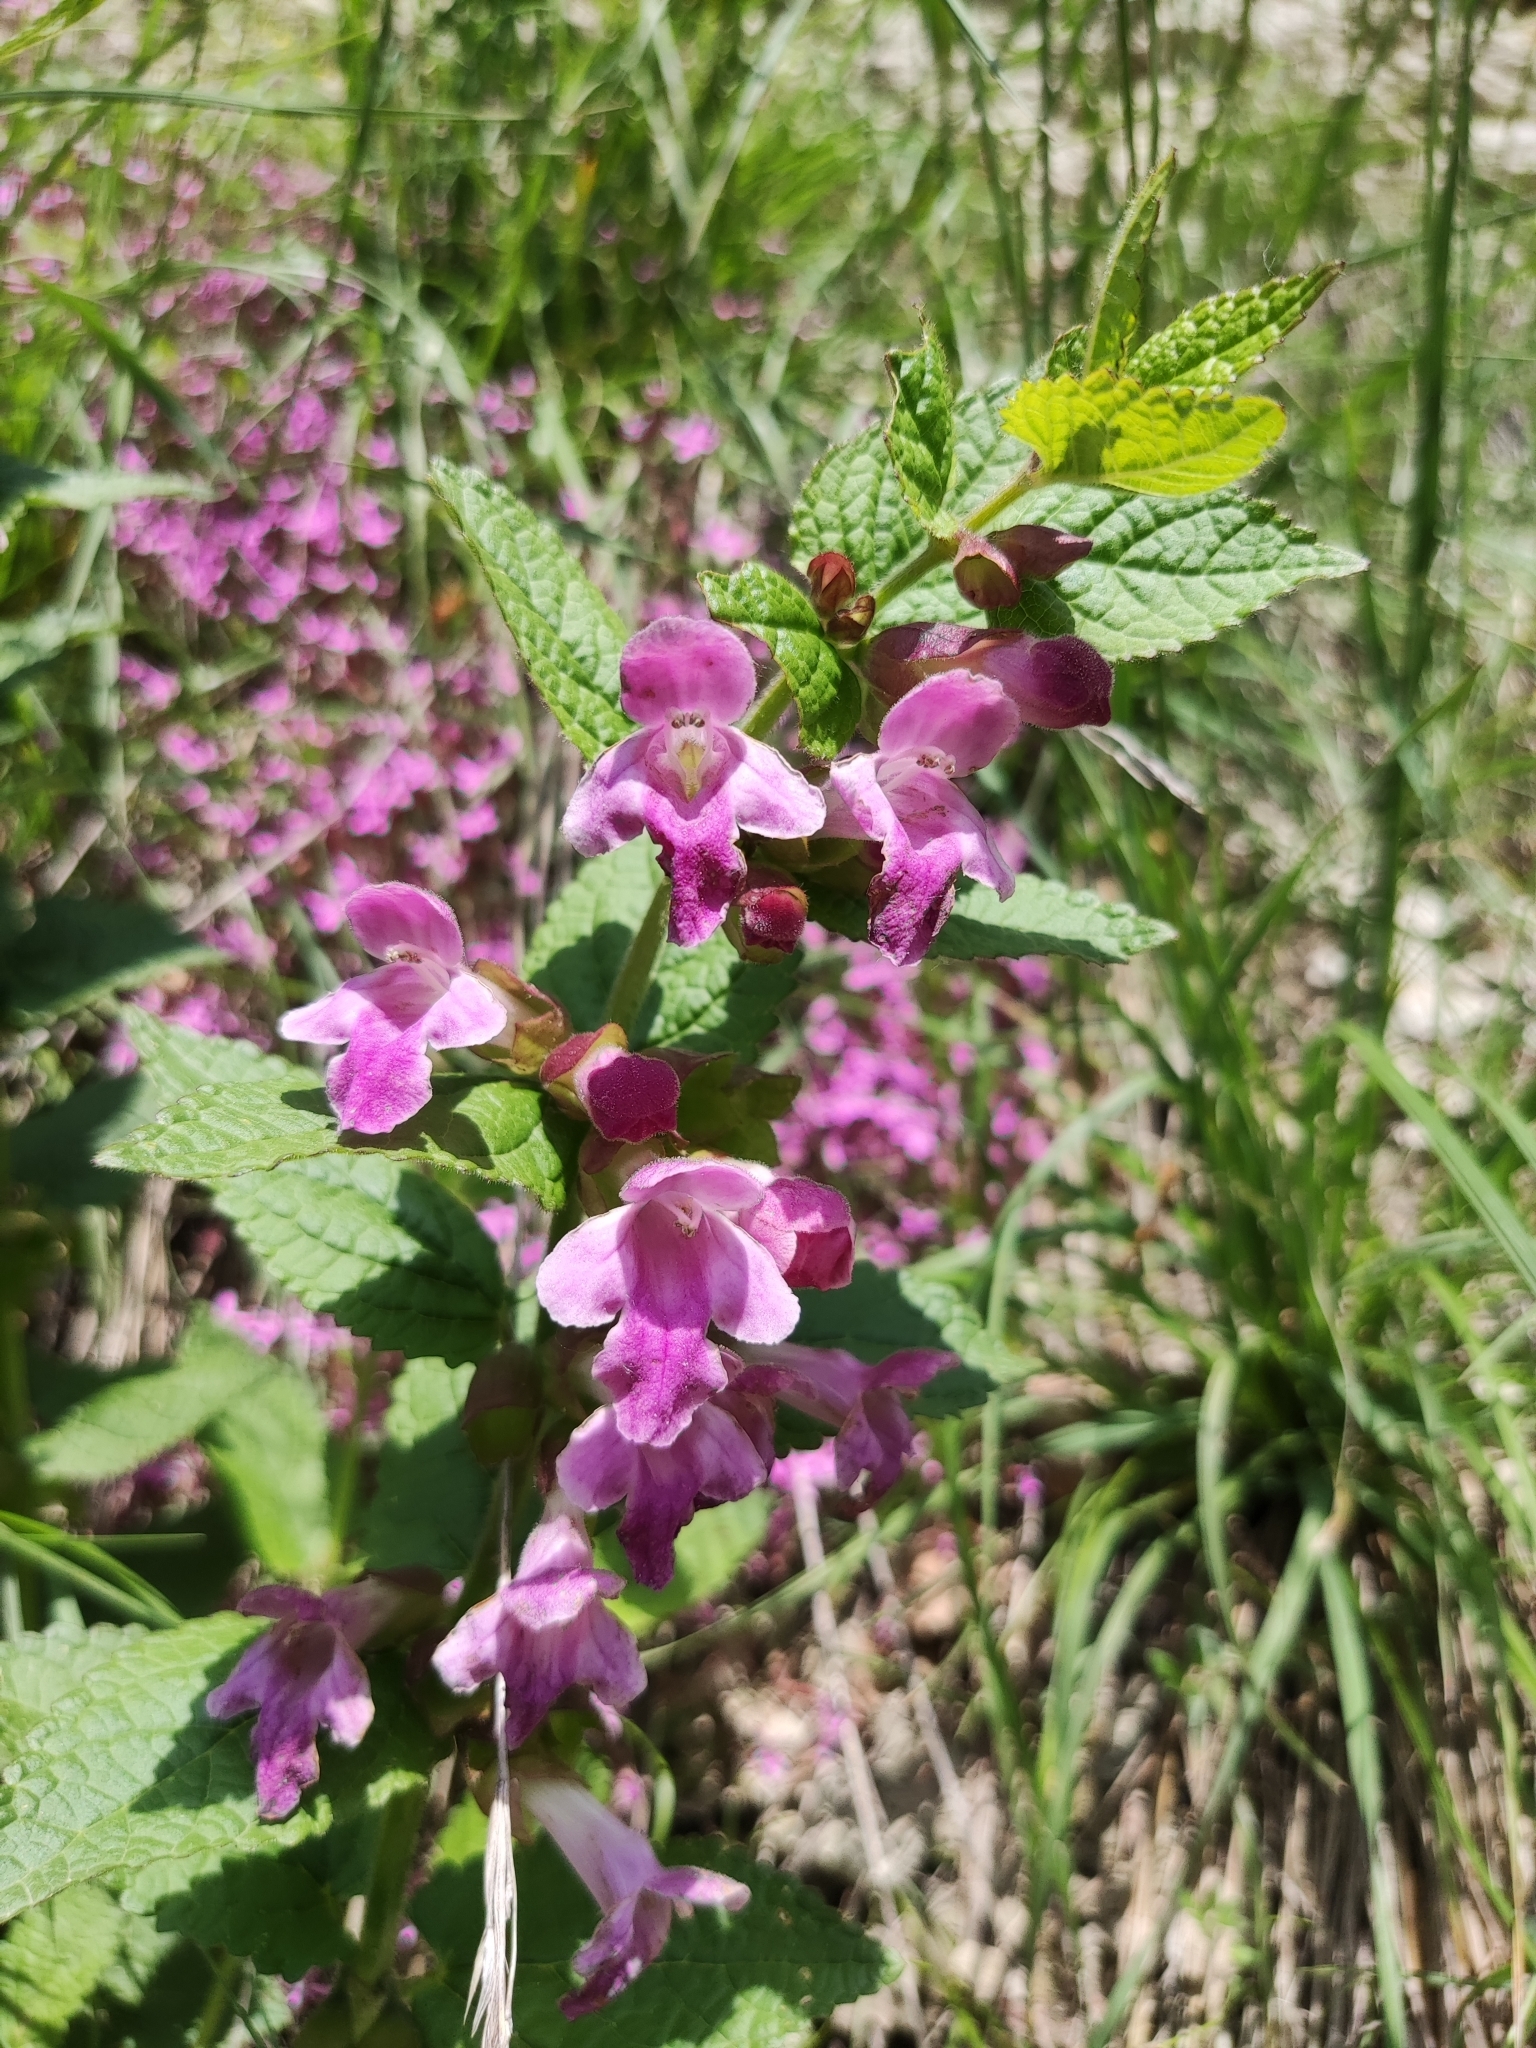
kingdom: Plantae
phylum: Tracheophyta
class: Magnoliopsida
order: Lamiales
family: Lamiaceae
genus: Melittis
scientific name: Melittis melissophyllum
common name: Bastard balm
